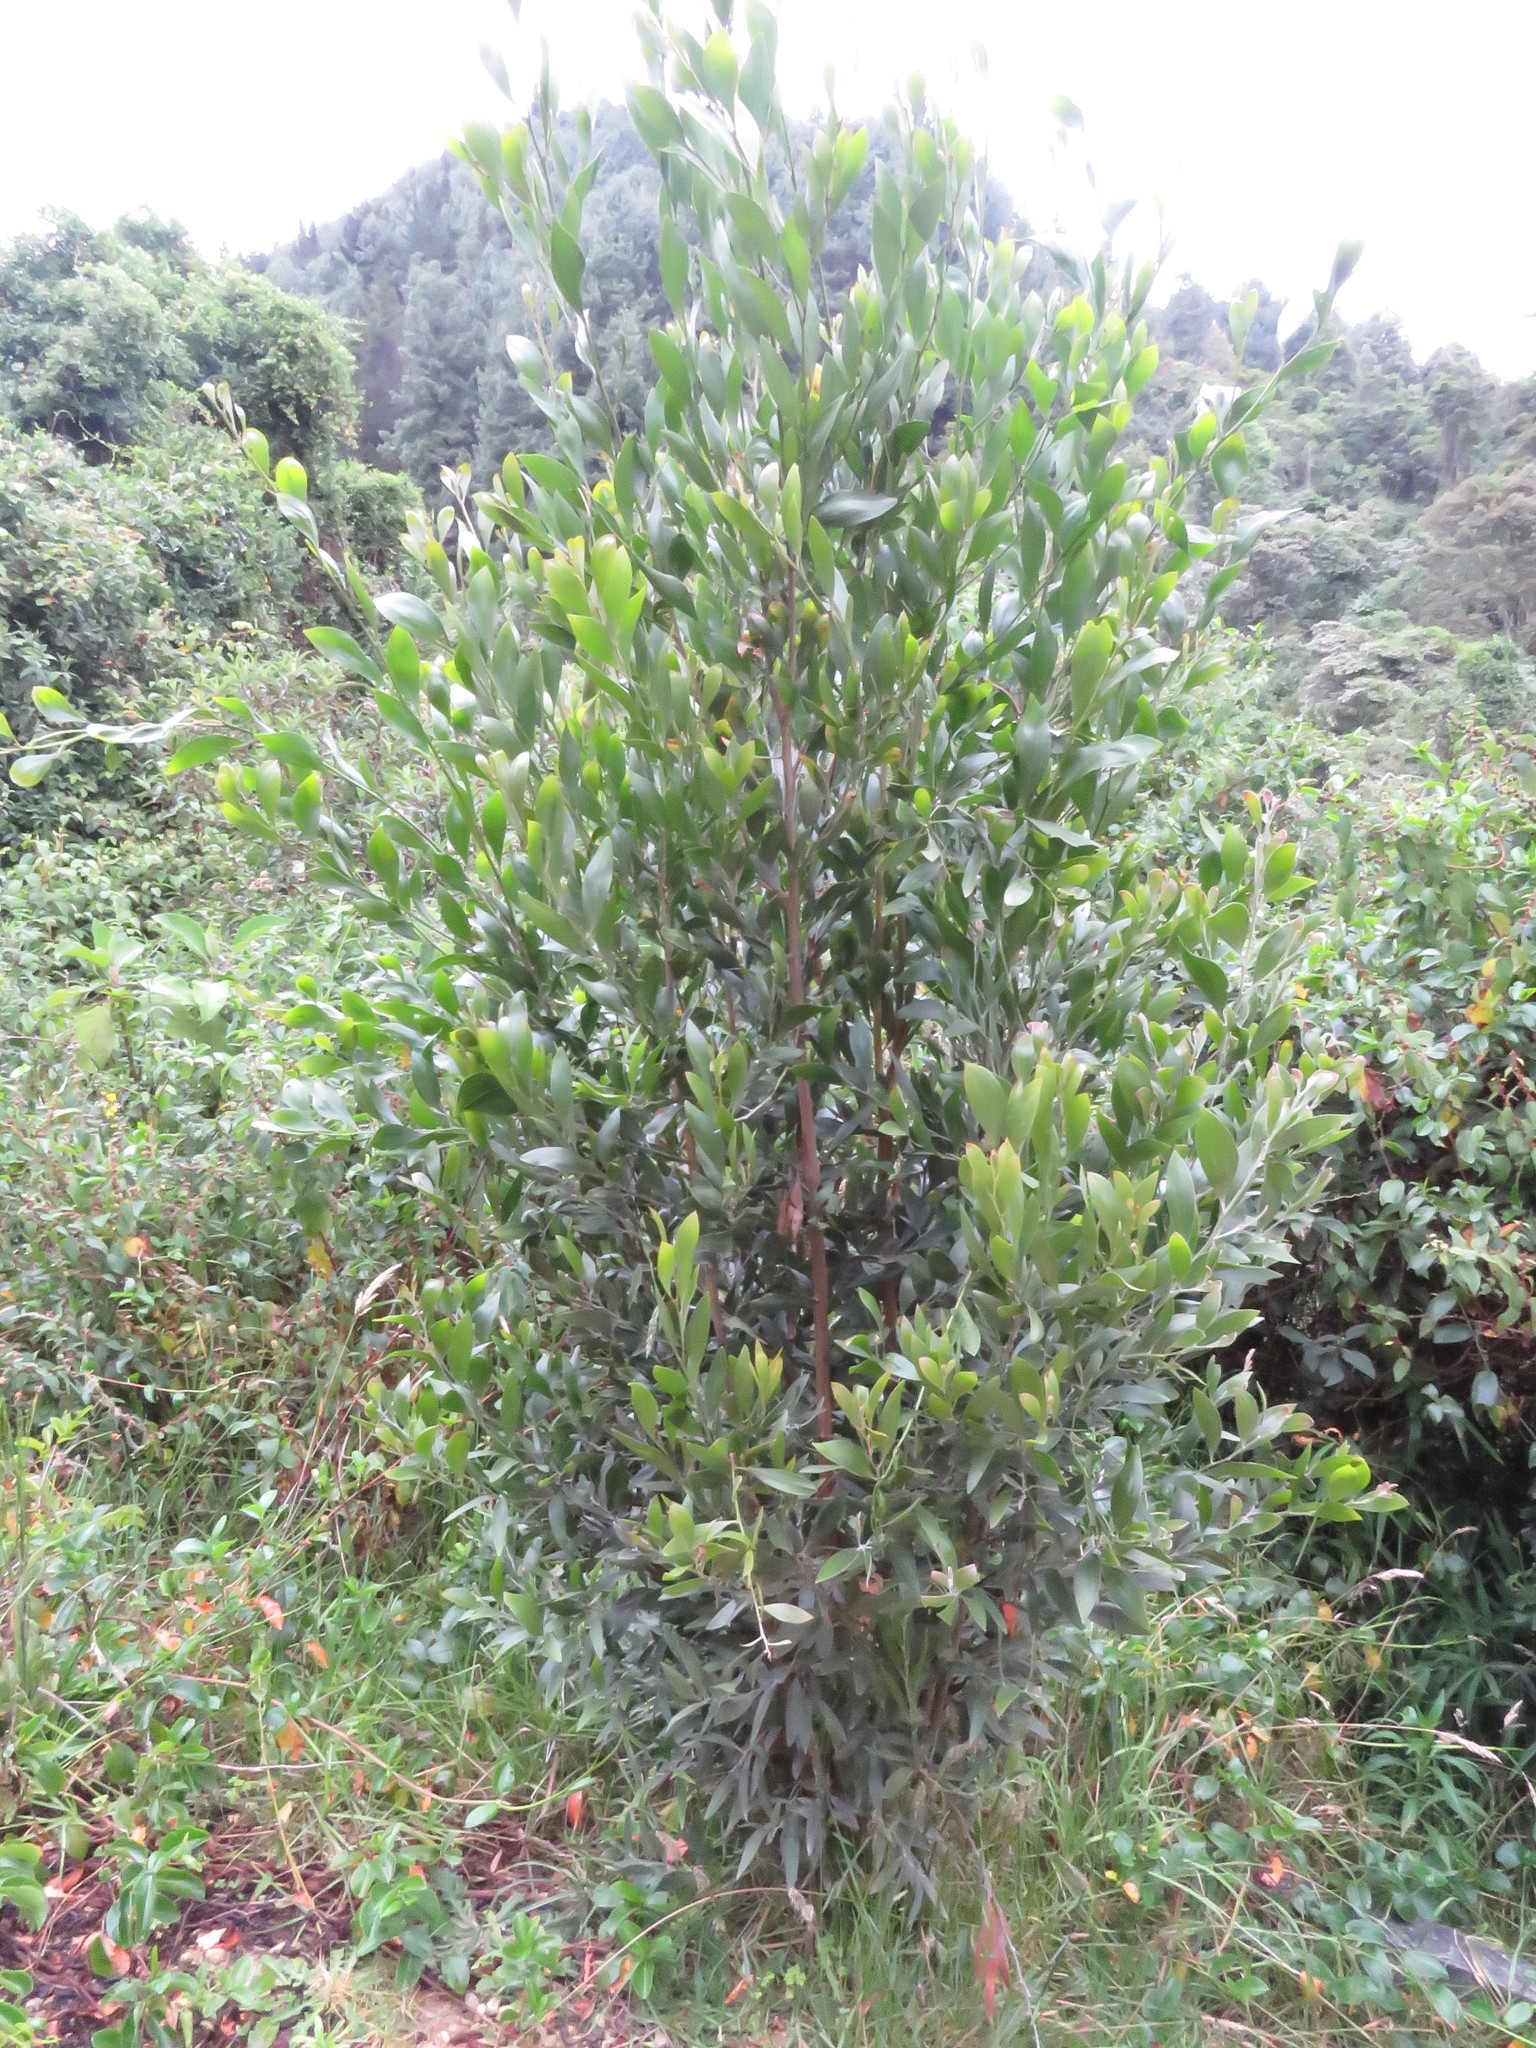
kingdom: Plantae
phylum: Tracheophyta
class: Magnoliopsida
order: Fabales
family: Fabaceae
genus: Acacia
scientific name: Acacia melanoxylon
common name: Blackwood
